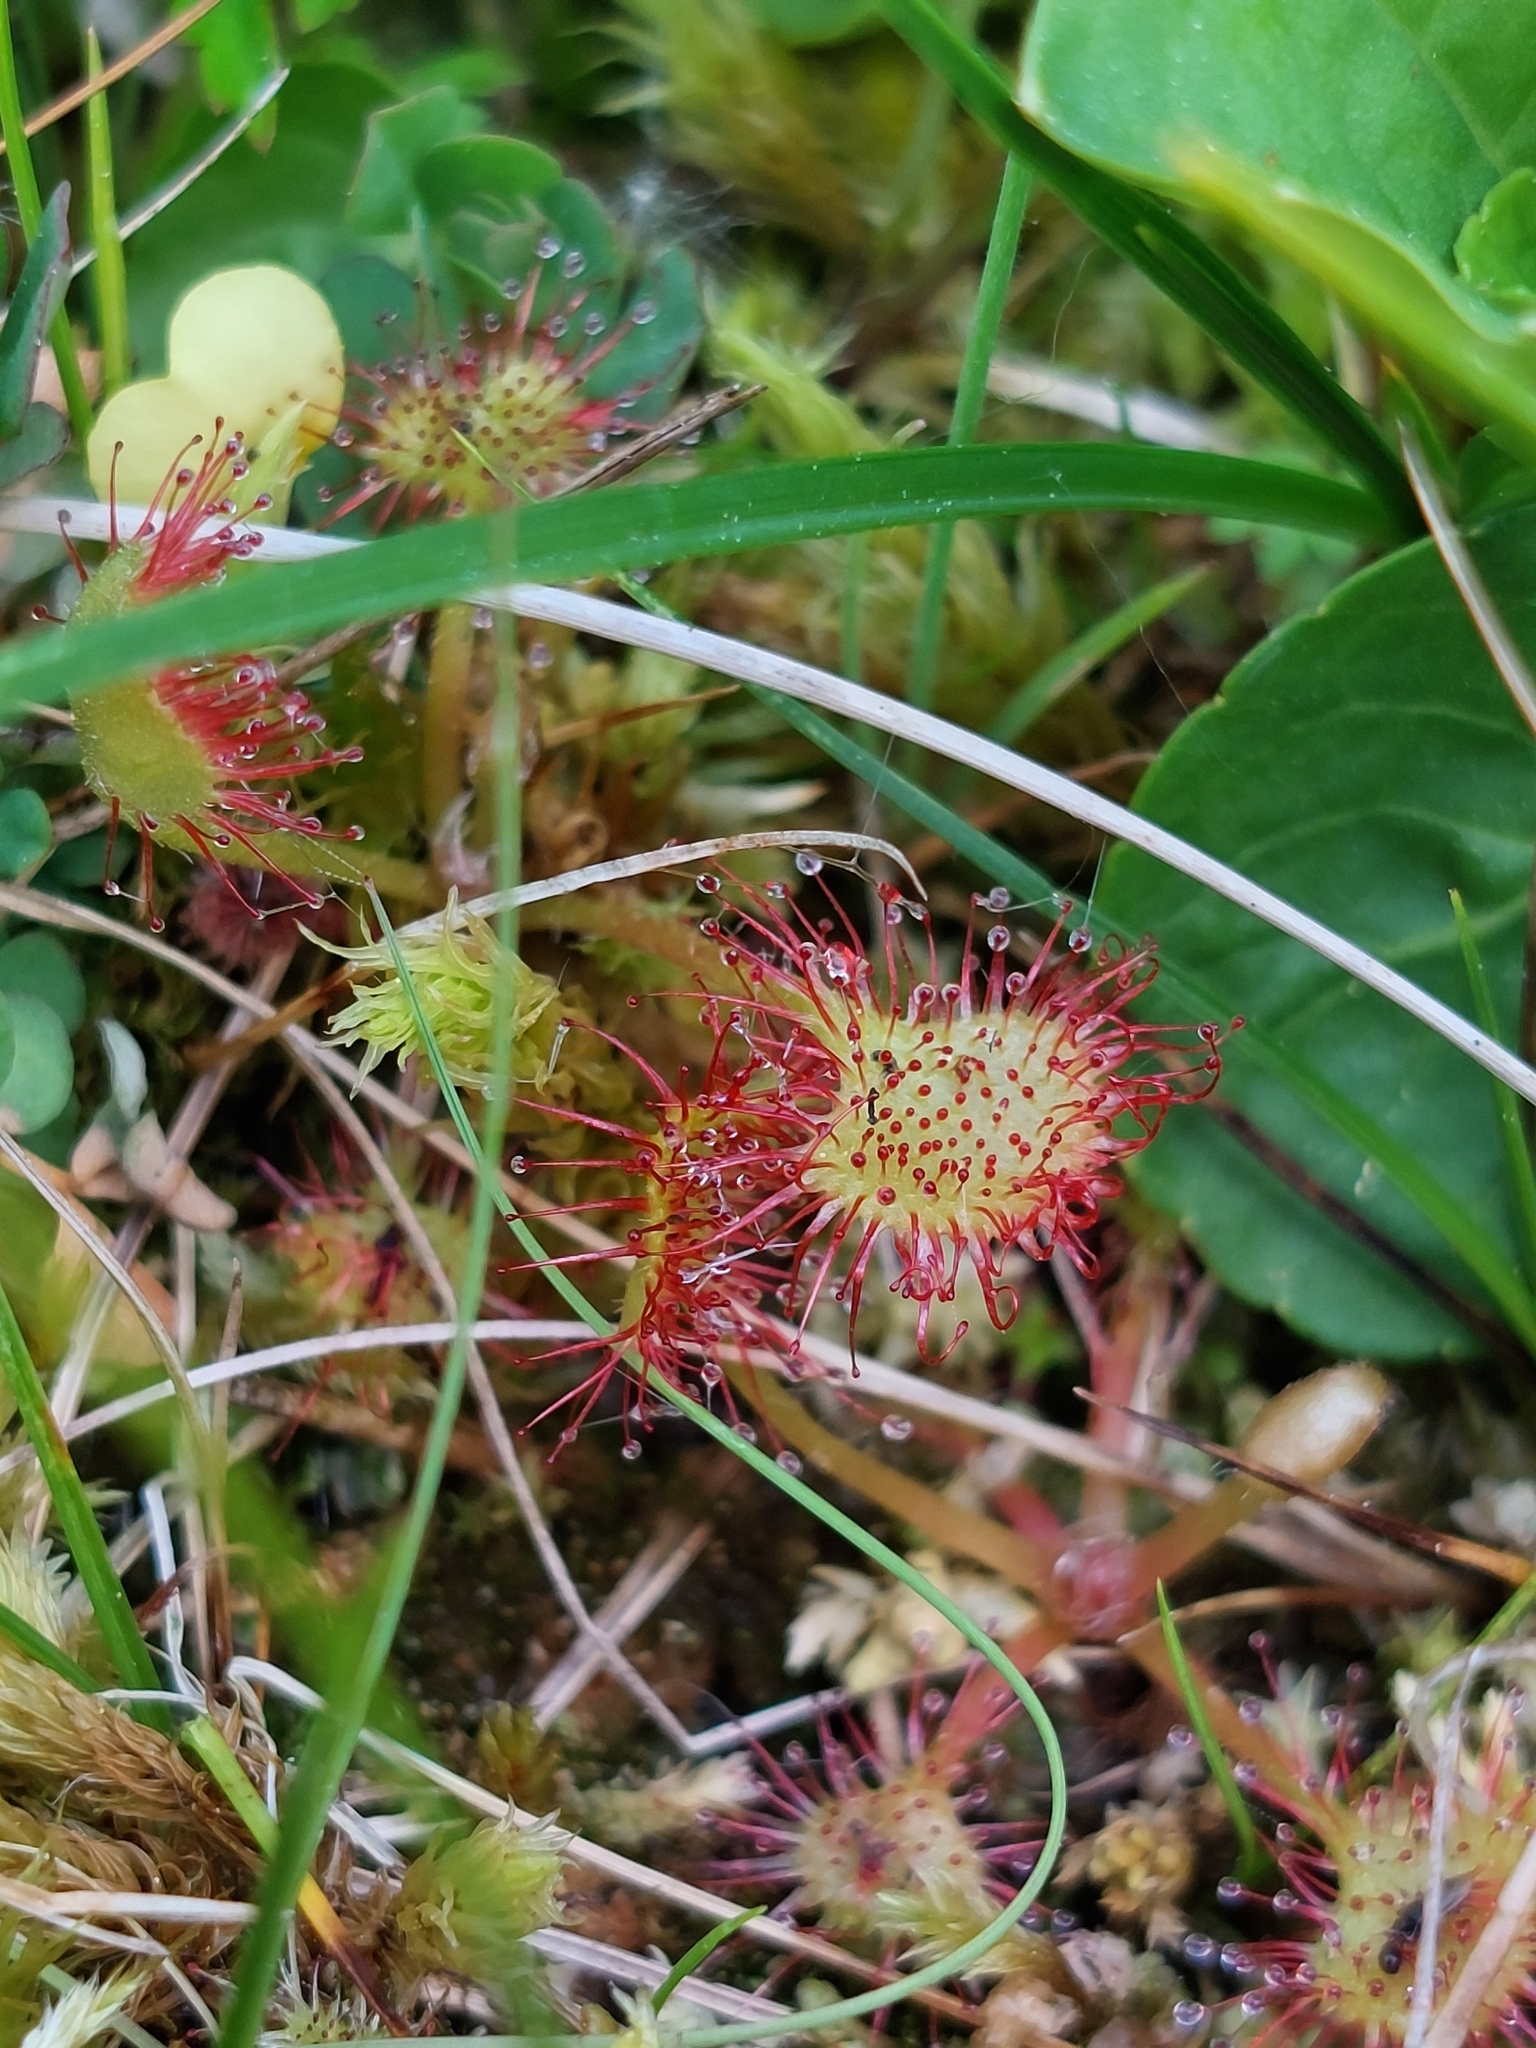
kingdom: Plantae
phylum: Tracheophyta
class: Magnoliopsida
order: Caryophyllales
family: Droseraceae
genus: Drosera
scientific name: Drosera rotundifolia
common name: Round-leaved sundew
